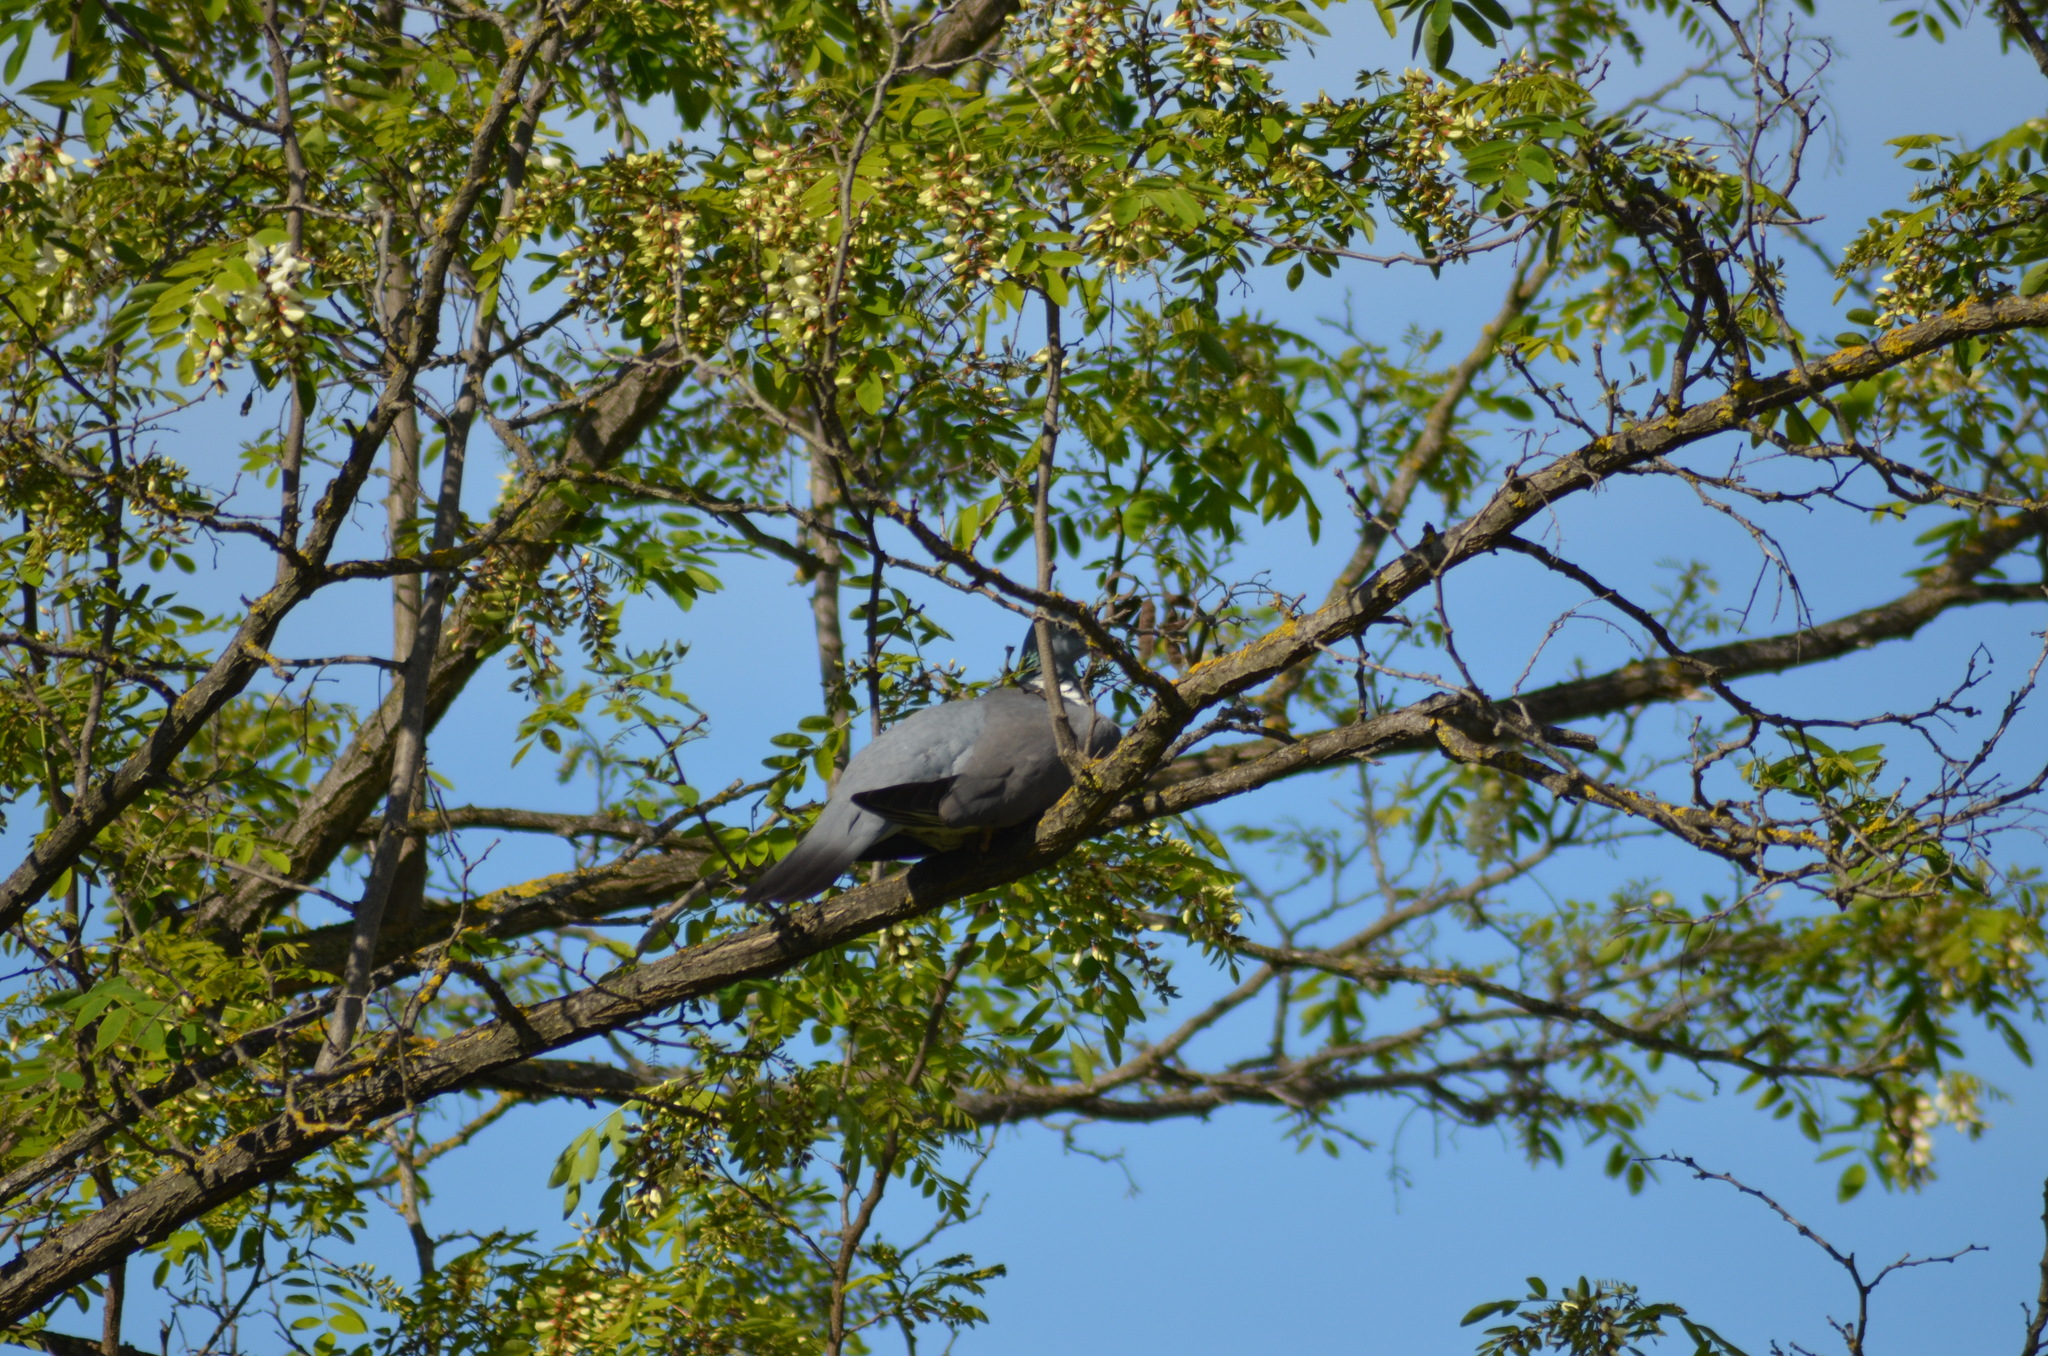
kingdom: Animalia
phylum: Chordata
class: Aves
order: Columbiformes
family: Columbidae
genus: Columba
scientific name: Columba palumbus
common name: Common wood pigeon
